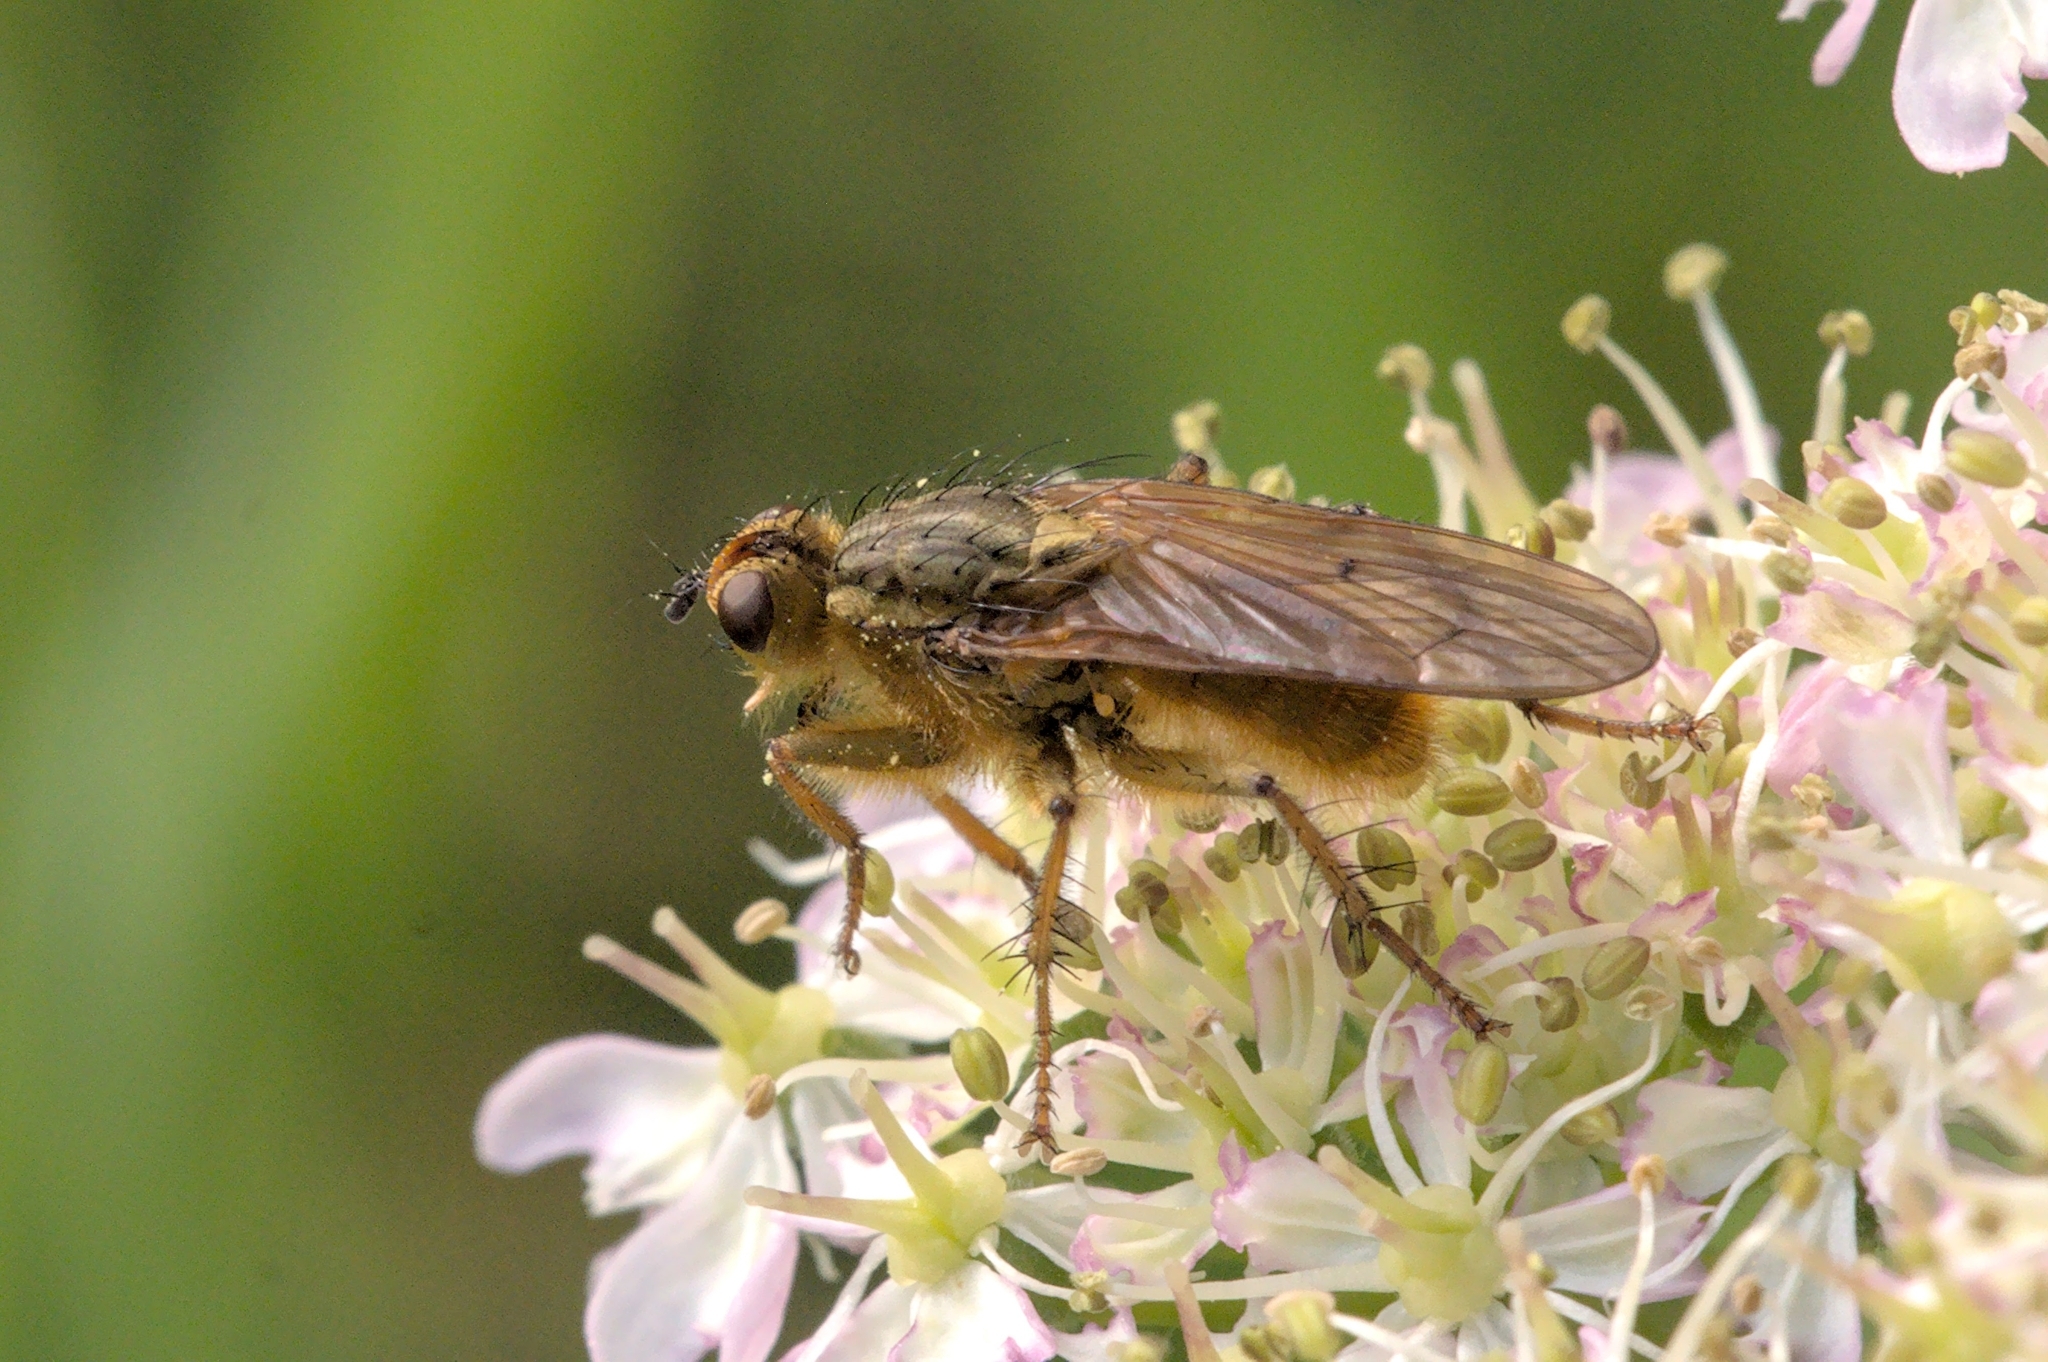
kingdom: Animalia
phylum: Arthropoda
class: Insecta
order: Diptera
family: Scathophagidae
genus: Scathophaga
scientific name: Scathophaga stercoraria
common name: Yellow dung fly
